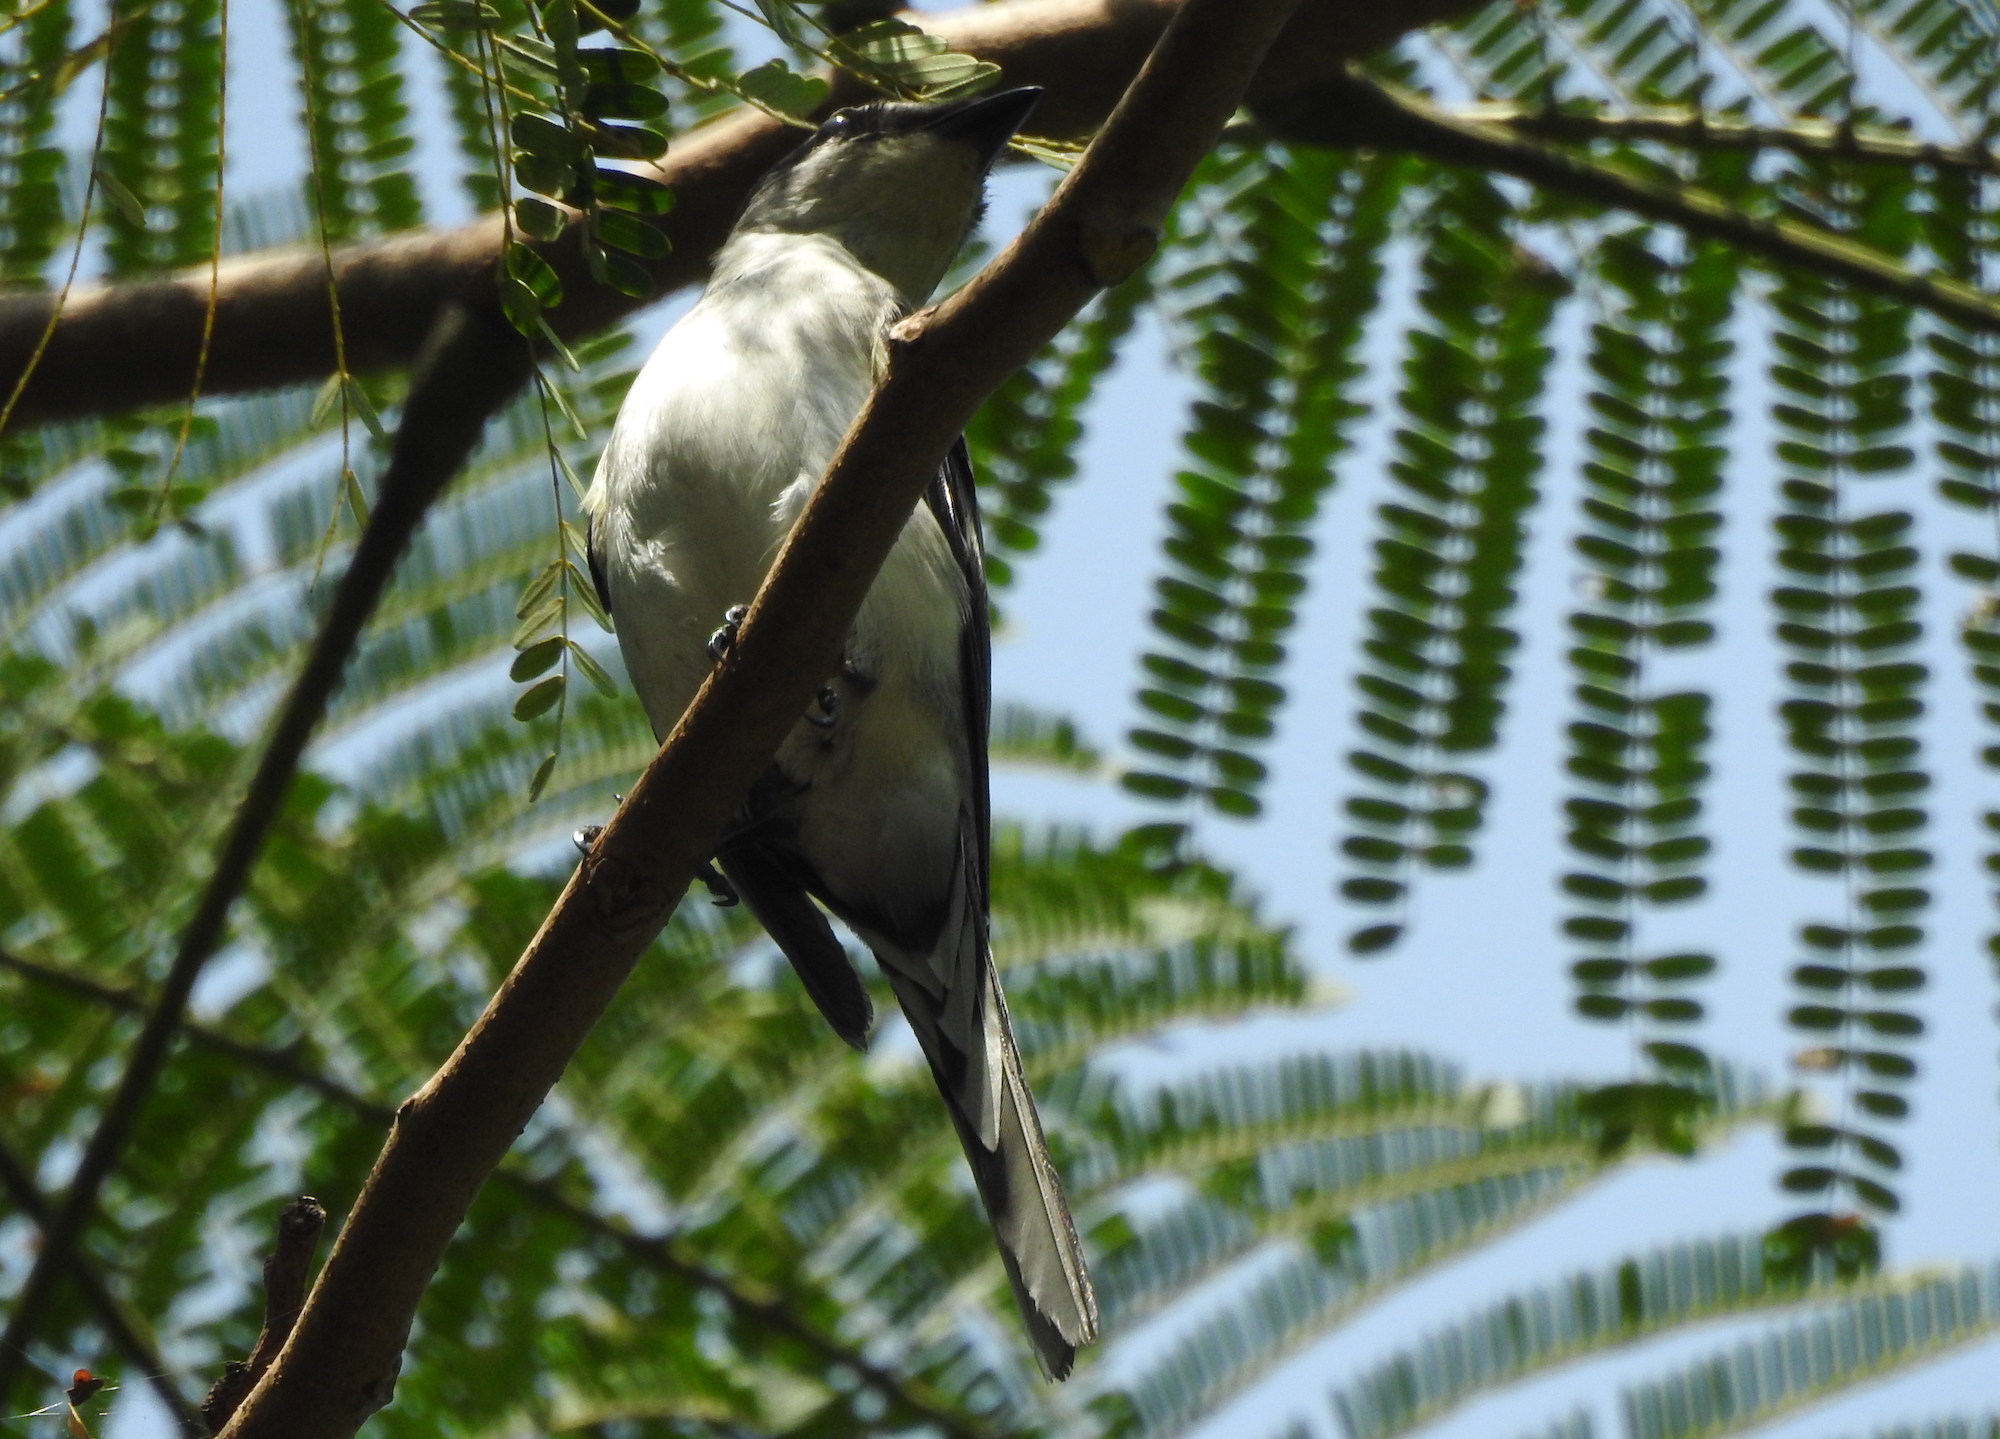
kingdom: Animalia
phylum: Chordata
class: Aves
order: Passeriformes
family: Campephagidae
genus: Pericrocotus
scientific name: Pericrocotus divaricatus
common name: Ashy minivet
